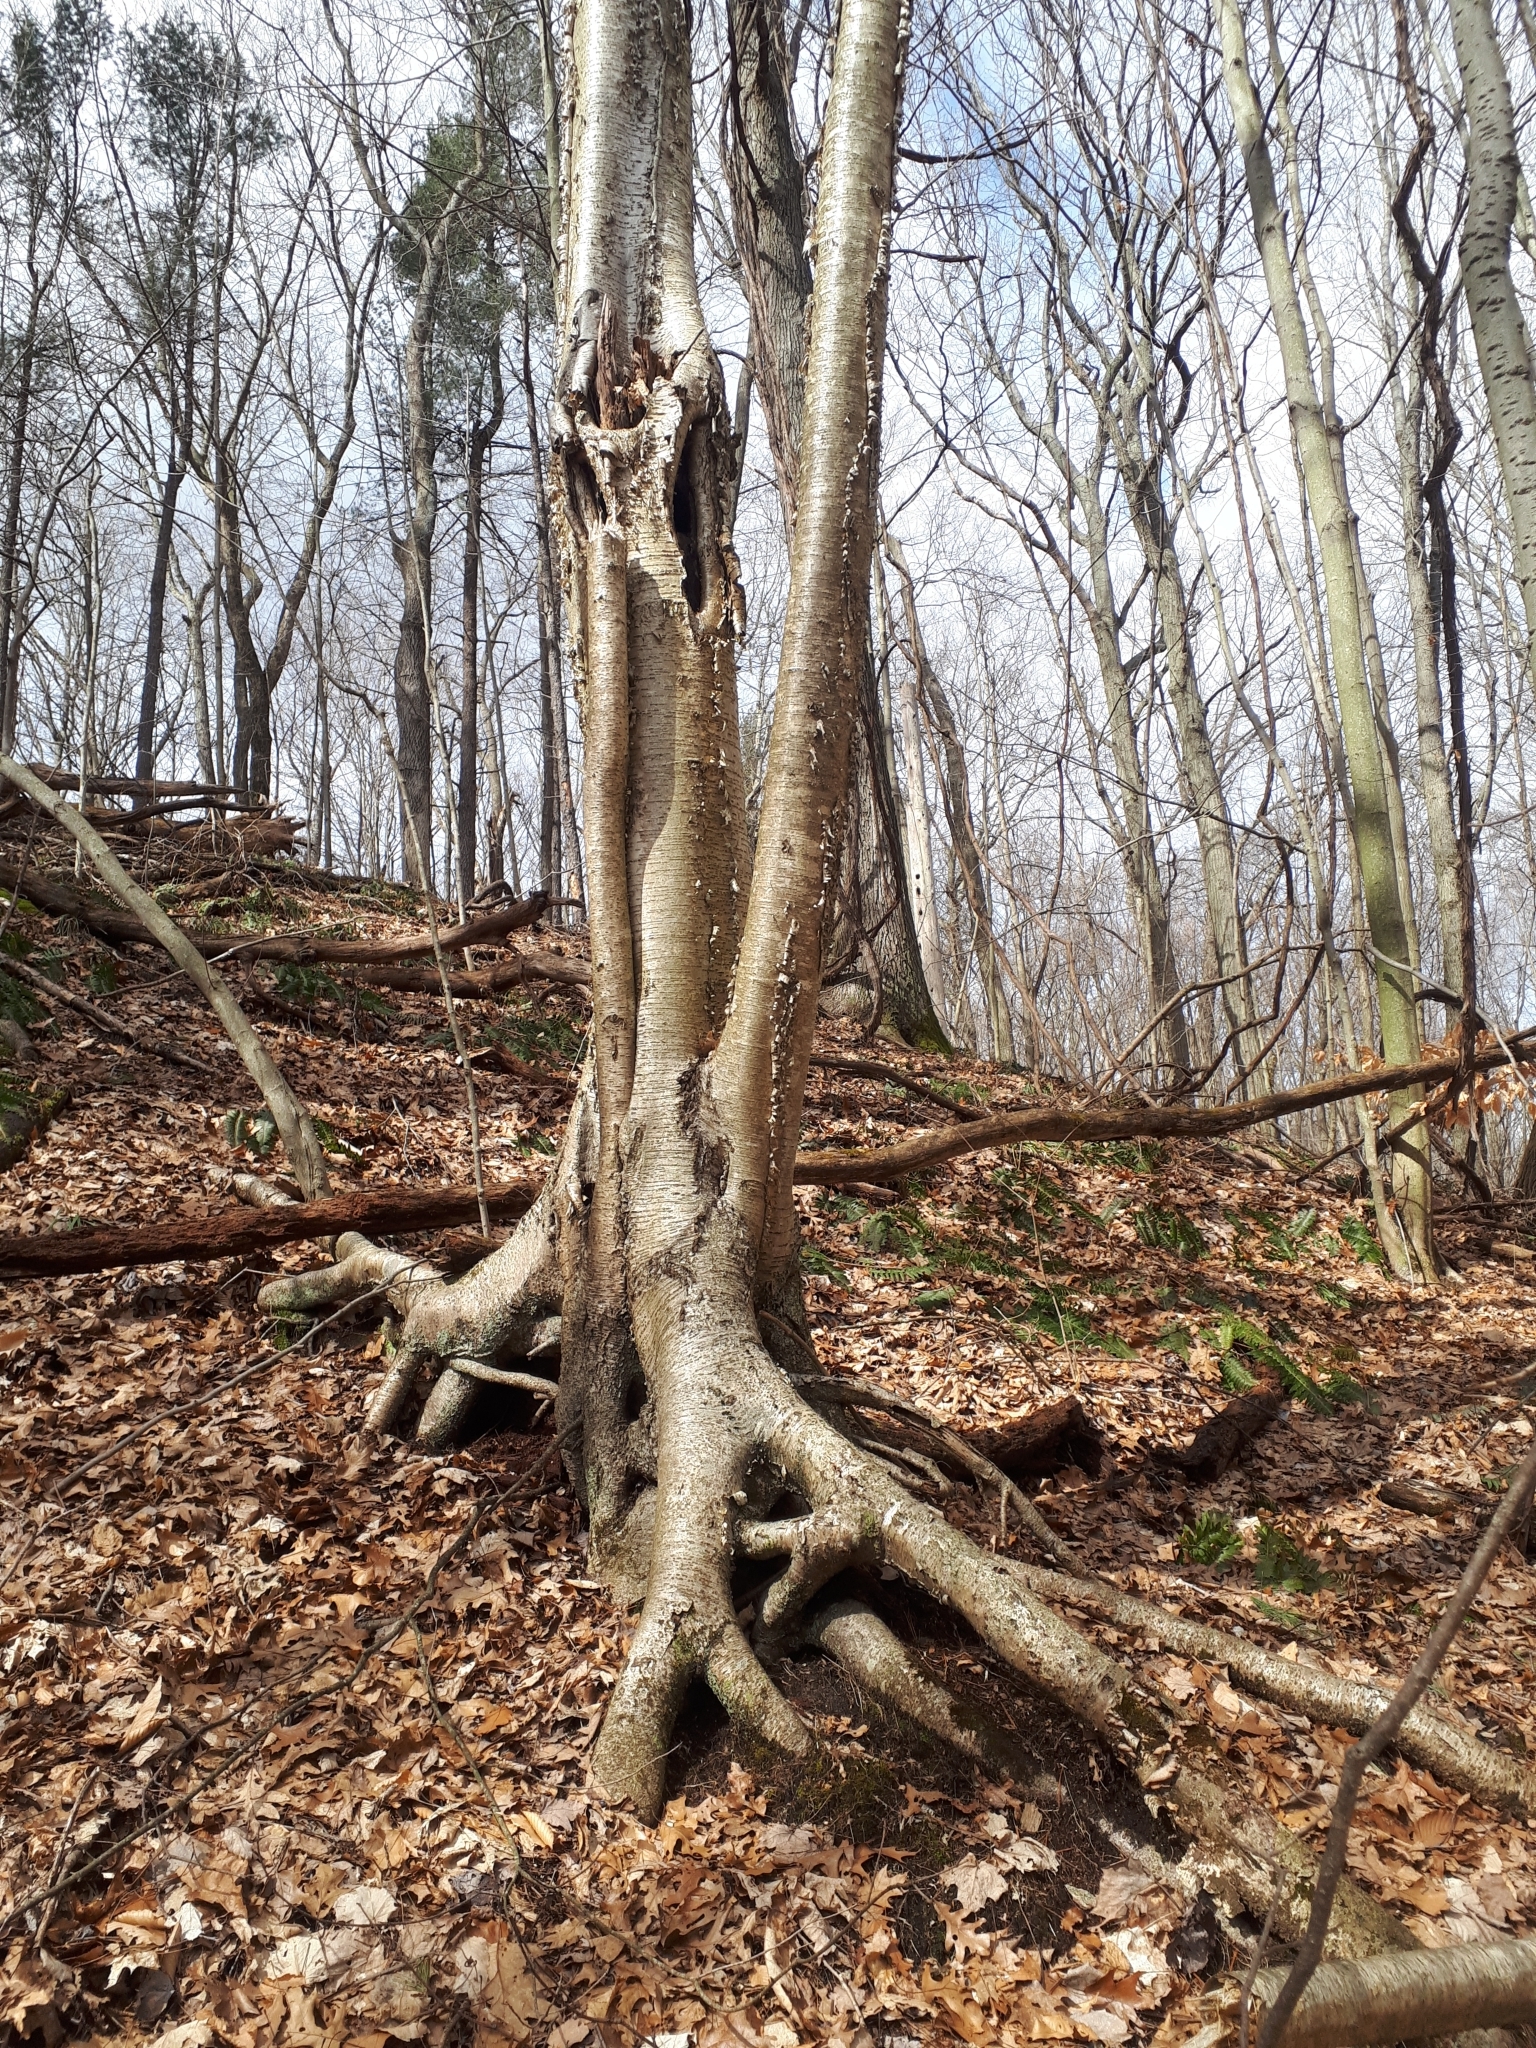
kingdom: Plantae
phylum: Tracheophyta
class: Magnoliopsida
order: Fagales
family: Betulaceae
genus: Betula
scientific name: Betula alleghaniensis
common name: Yellow birch
